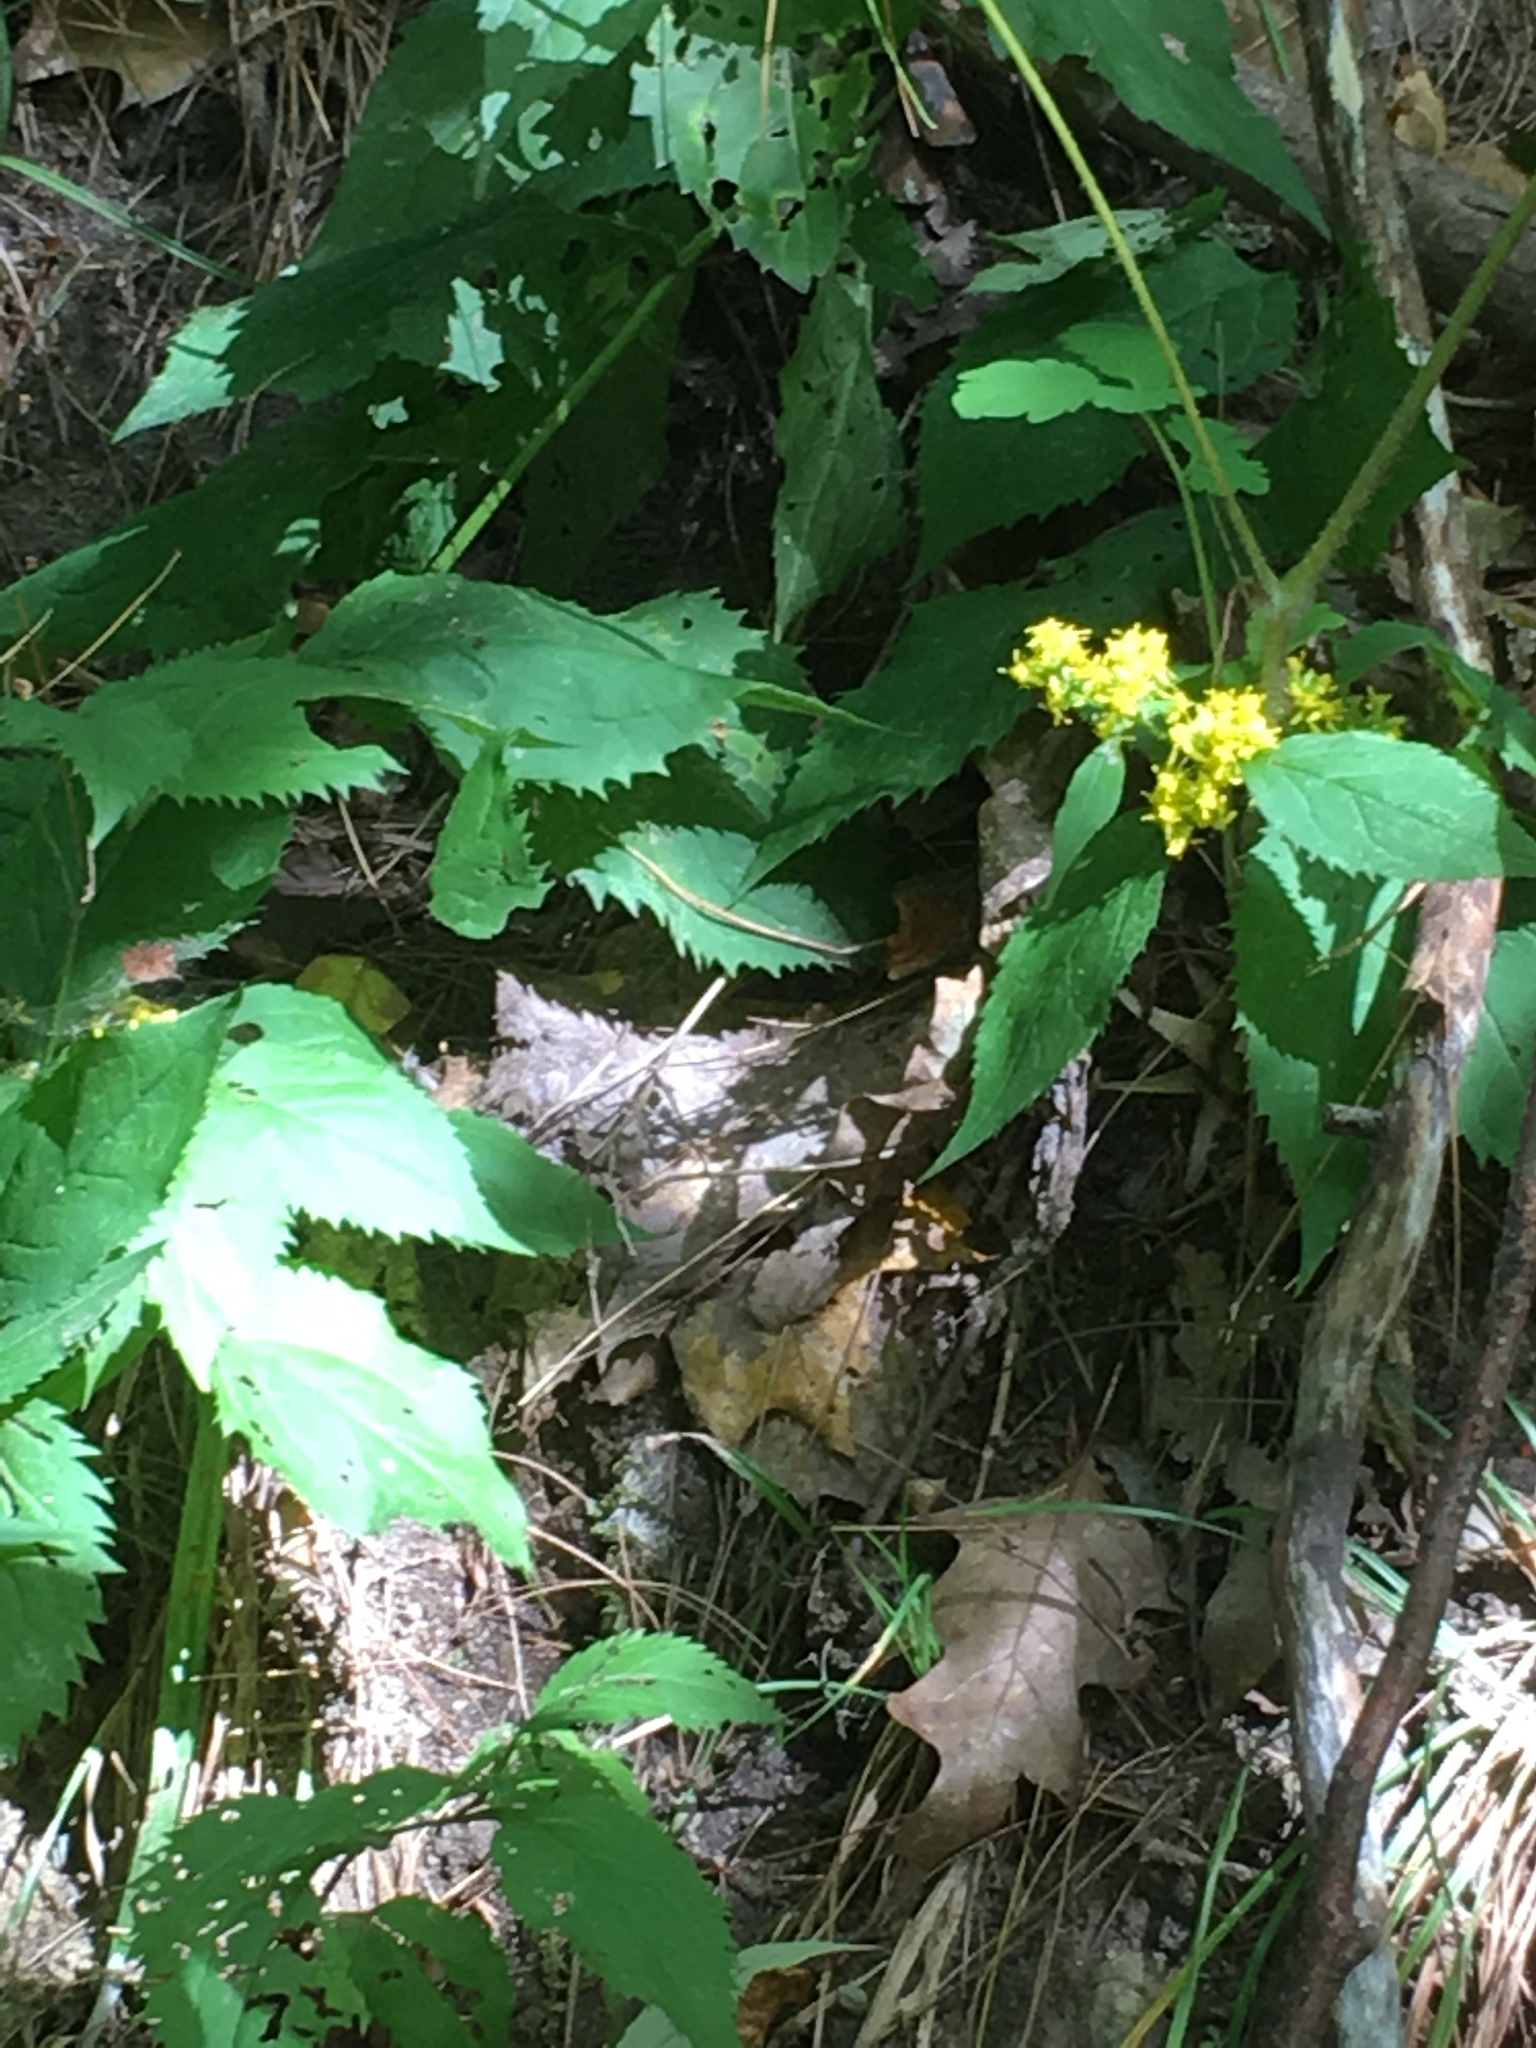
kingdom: Plantae
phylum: Tracheophyta
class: Magnoliopsida
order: Asterales
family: Asteraceae
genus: Solidago
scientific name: Solidago flexicaulis
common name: Zig-zag goldenrod
